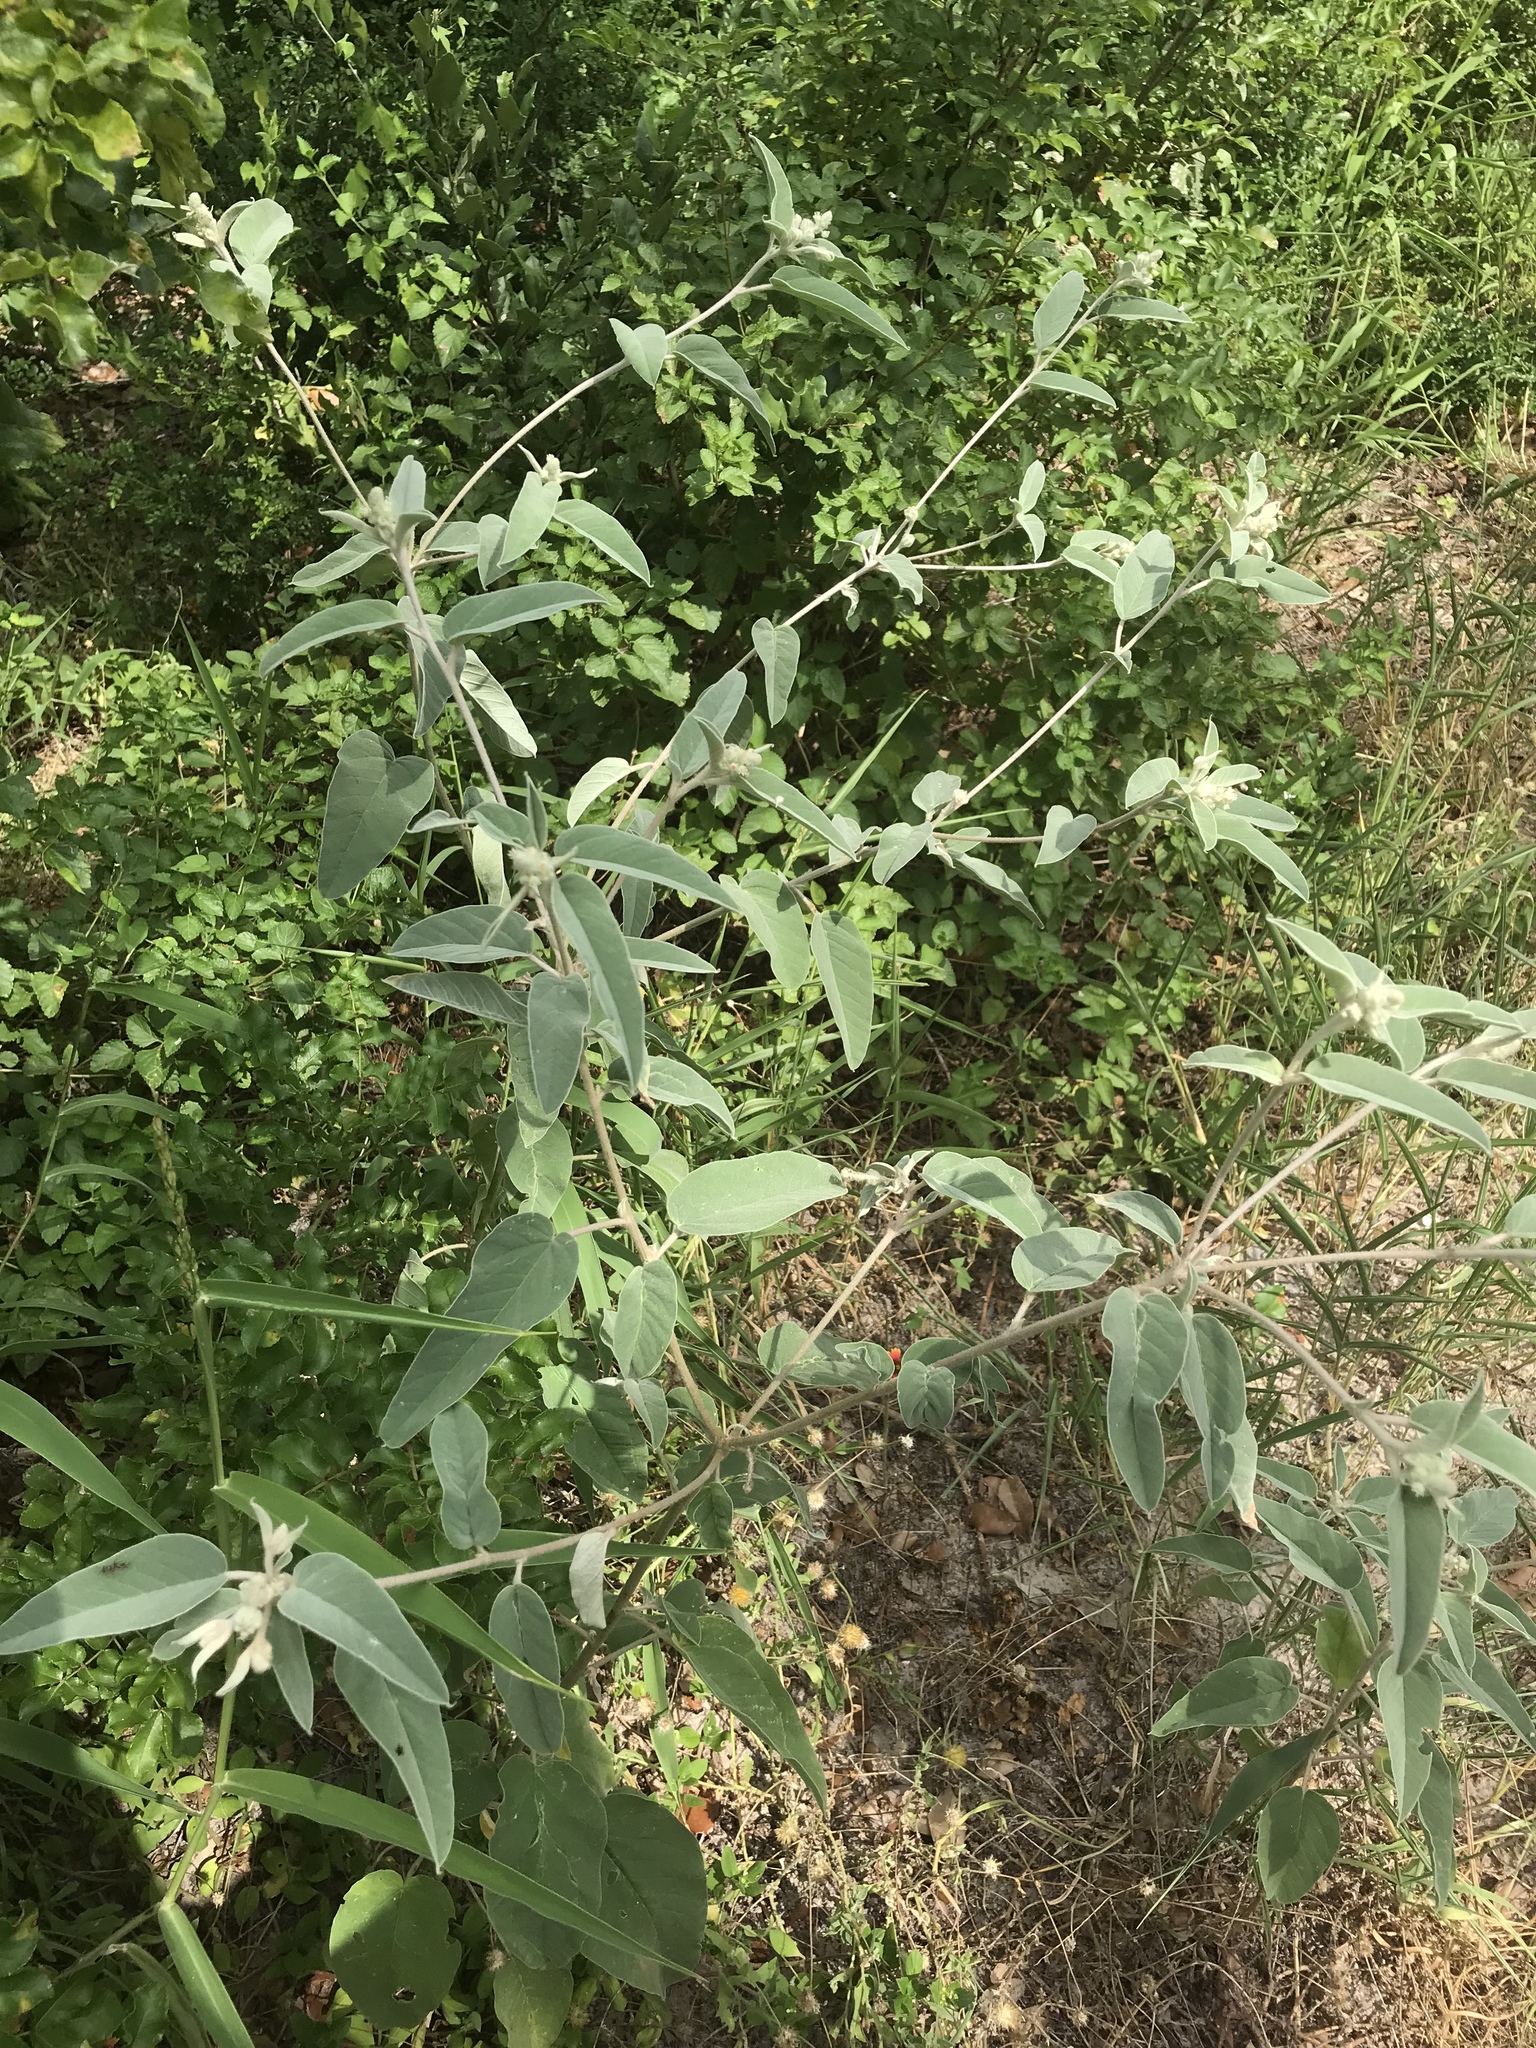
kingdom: Plantae
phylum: Tracheophyta
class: Magnoliopsida
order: Malpighiales
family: Euphorbiaceae
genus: Croton
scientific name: Croton lindheimeri
